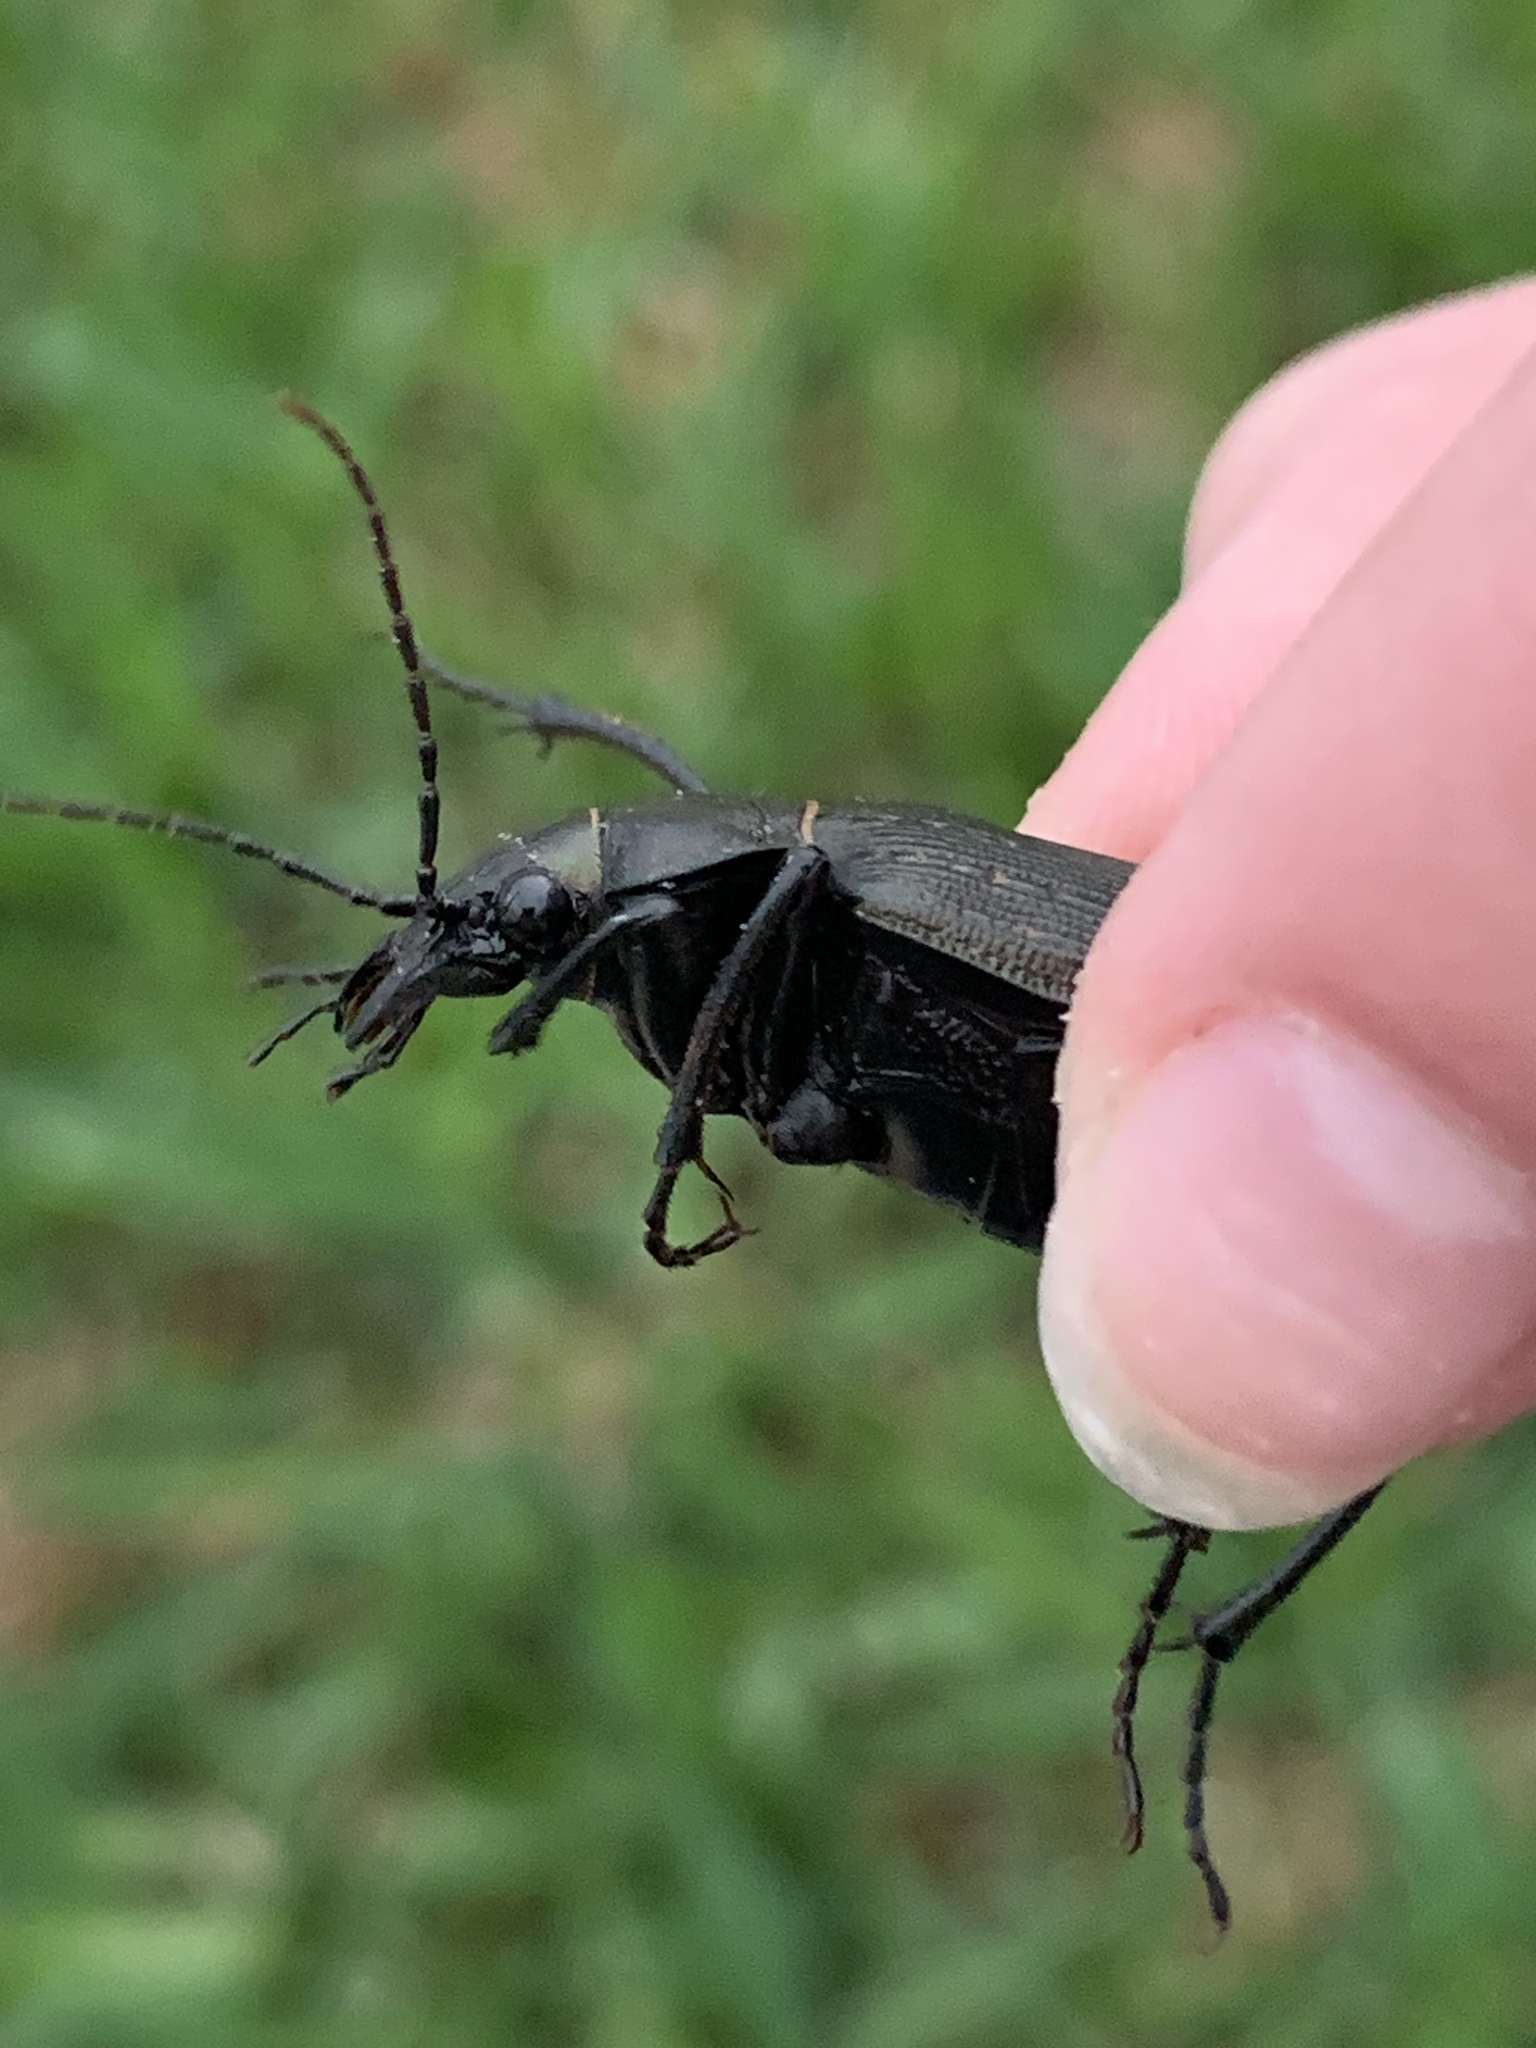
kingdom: Animalia
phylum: Arthropoda
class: Insecta
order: Coleoptera
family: Carabidae
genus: Calosoma
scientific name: Calosoma sayi
